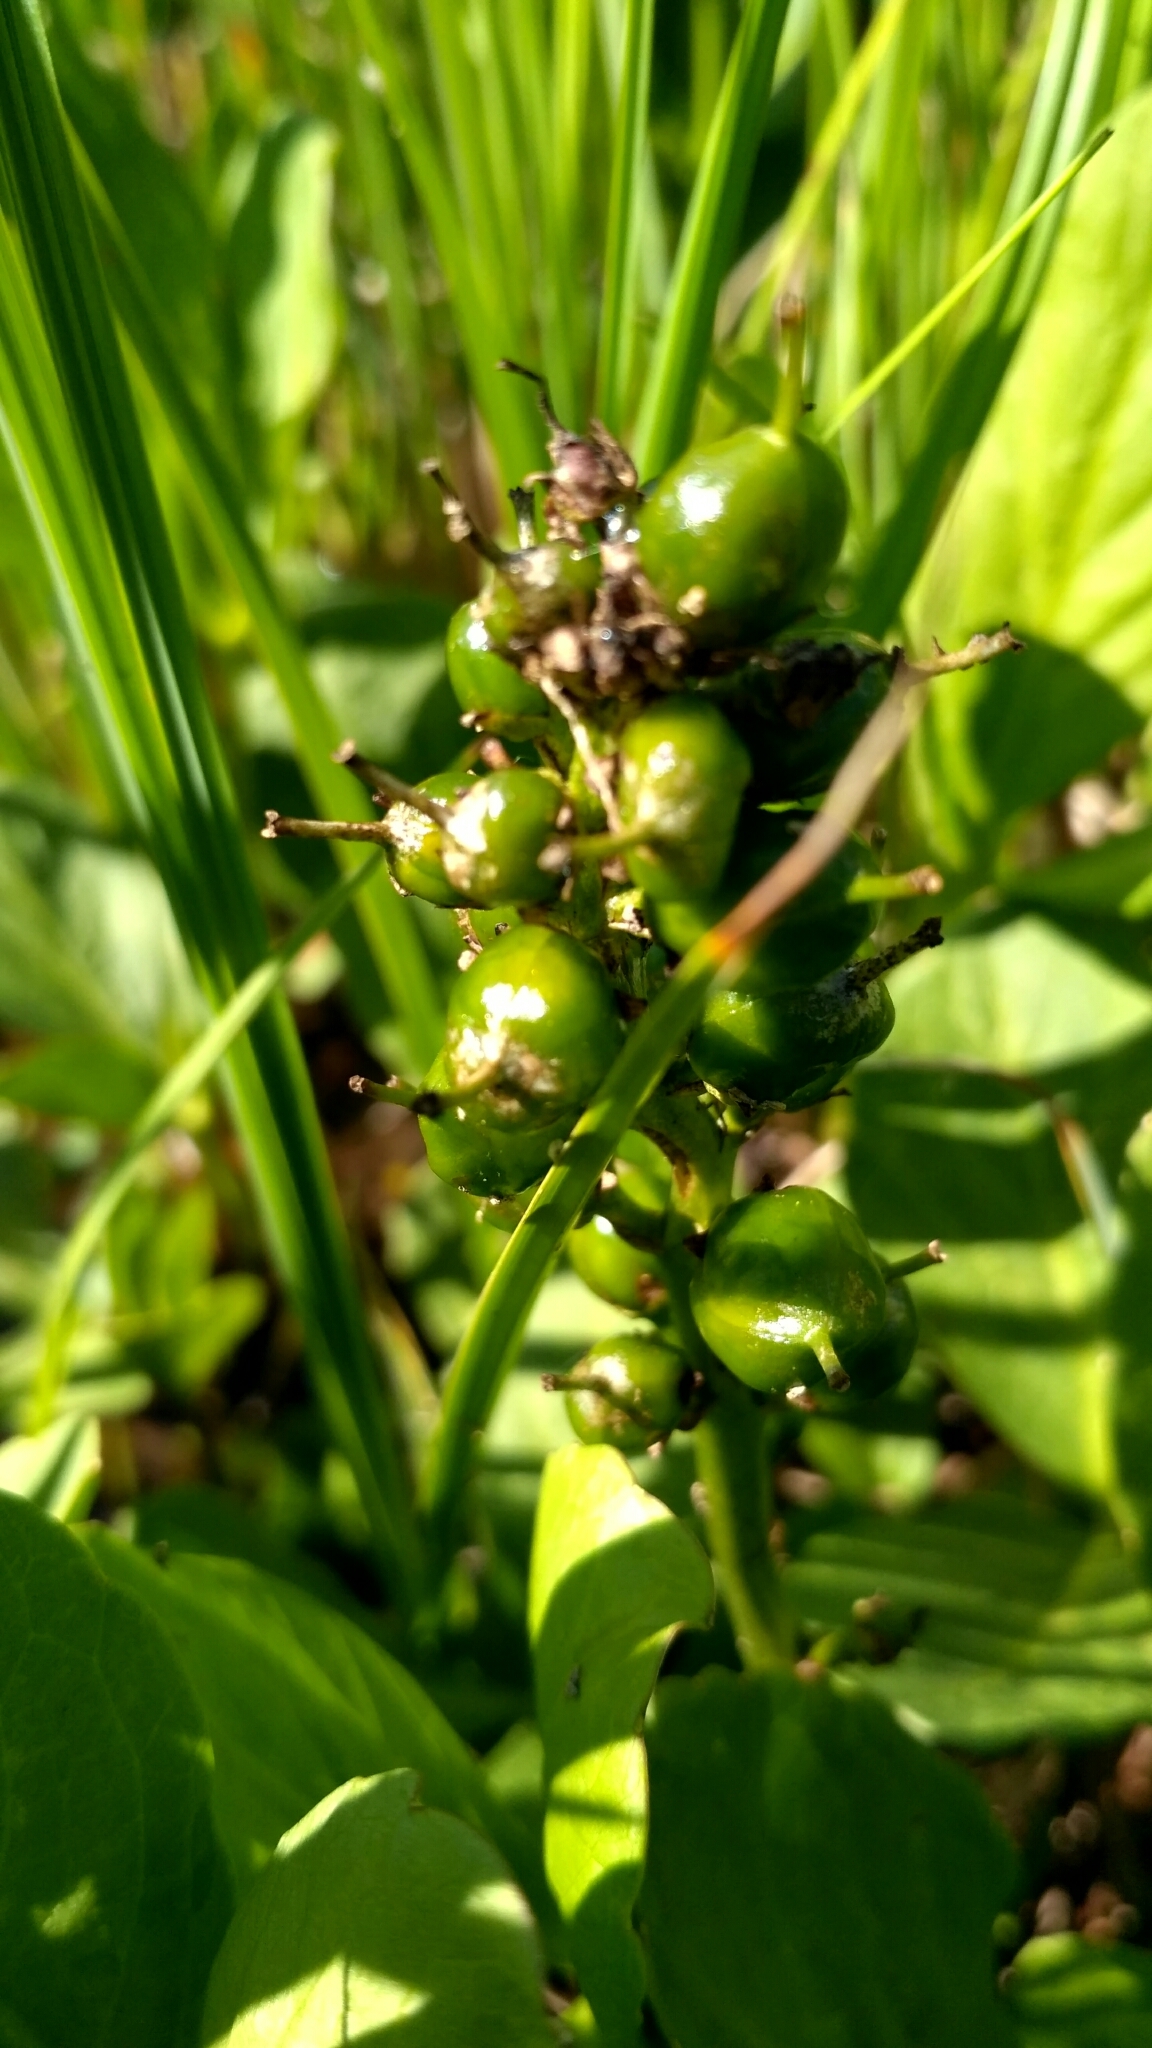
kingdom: Plantae
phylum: Tracheophyta
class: Magnoliopsida
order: Asterales
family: Menyanthaceae
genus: Menyanthes
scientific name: Menyanthes trifoliata
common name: Bogbean
